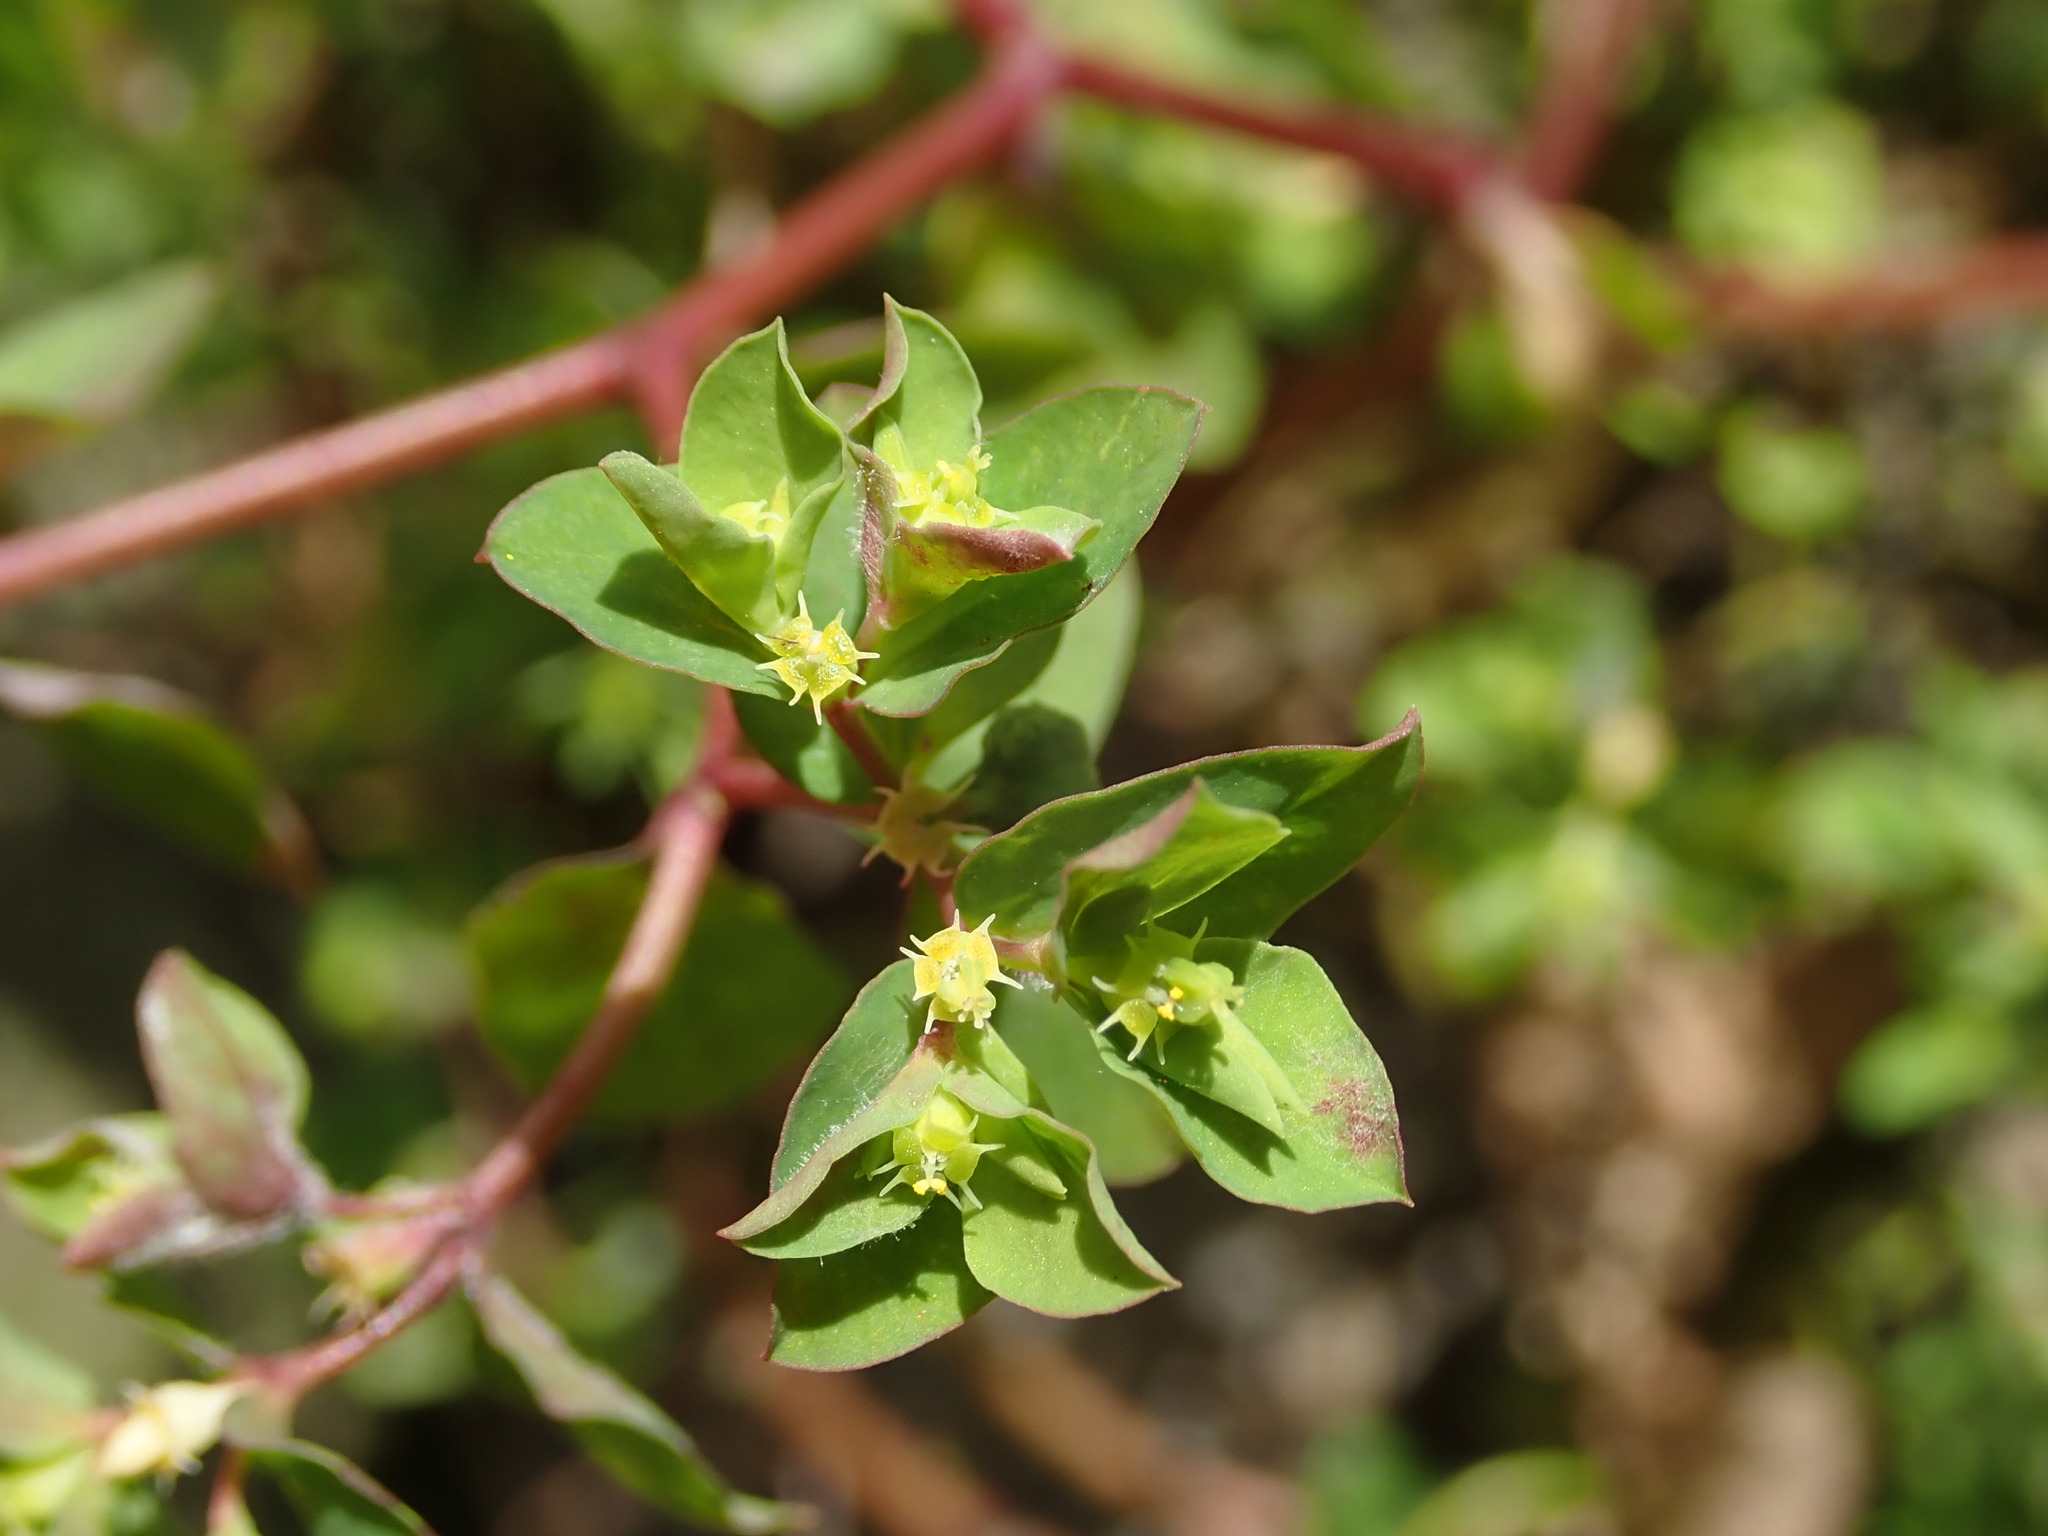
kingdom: Plantae
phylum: Tracheophyta
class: Magnoliopsida
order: Malpighiales
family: Euphorbiaceae
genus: Euphorbia
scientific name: Euphorbia peplus
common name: Petty spurge
